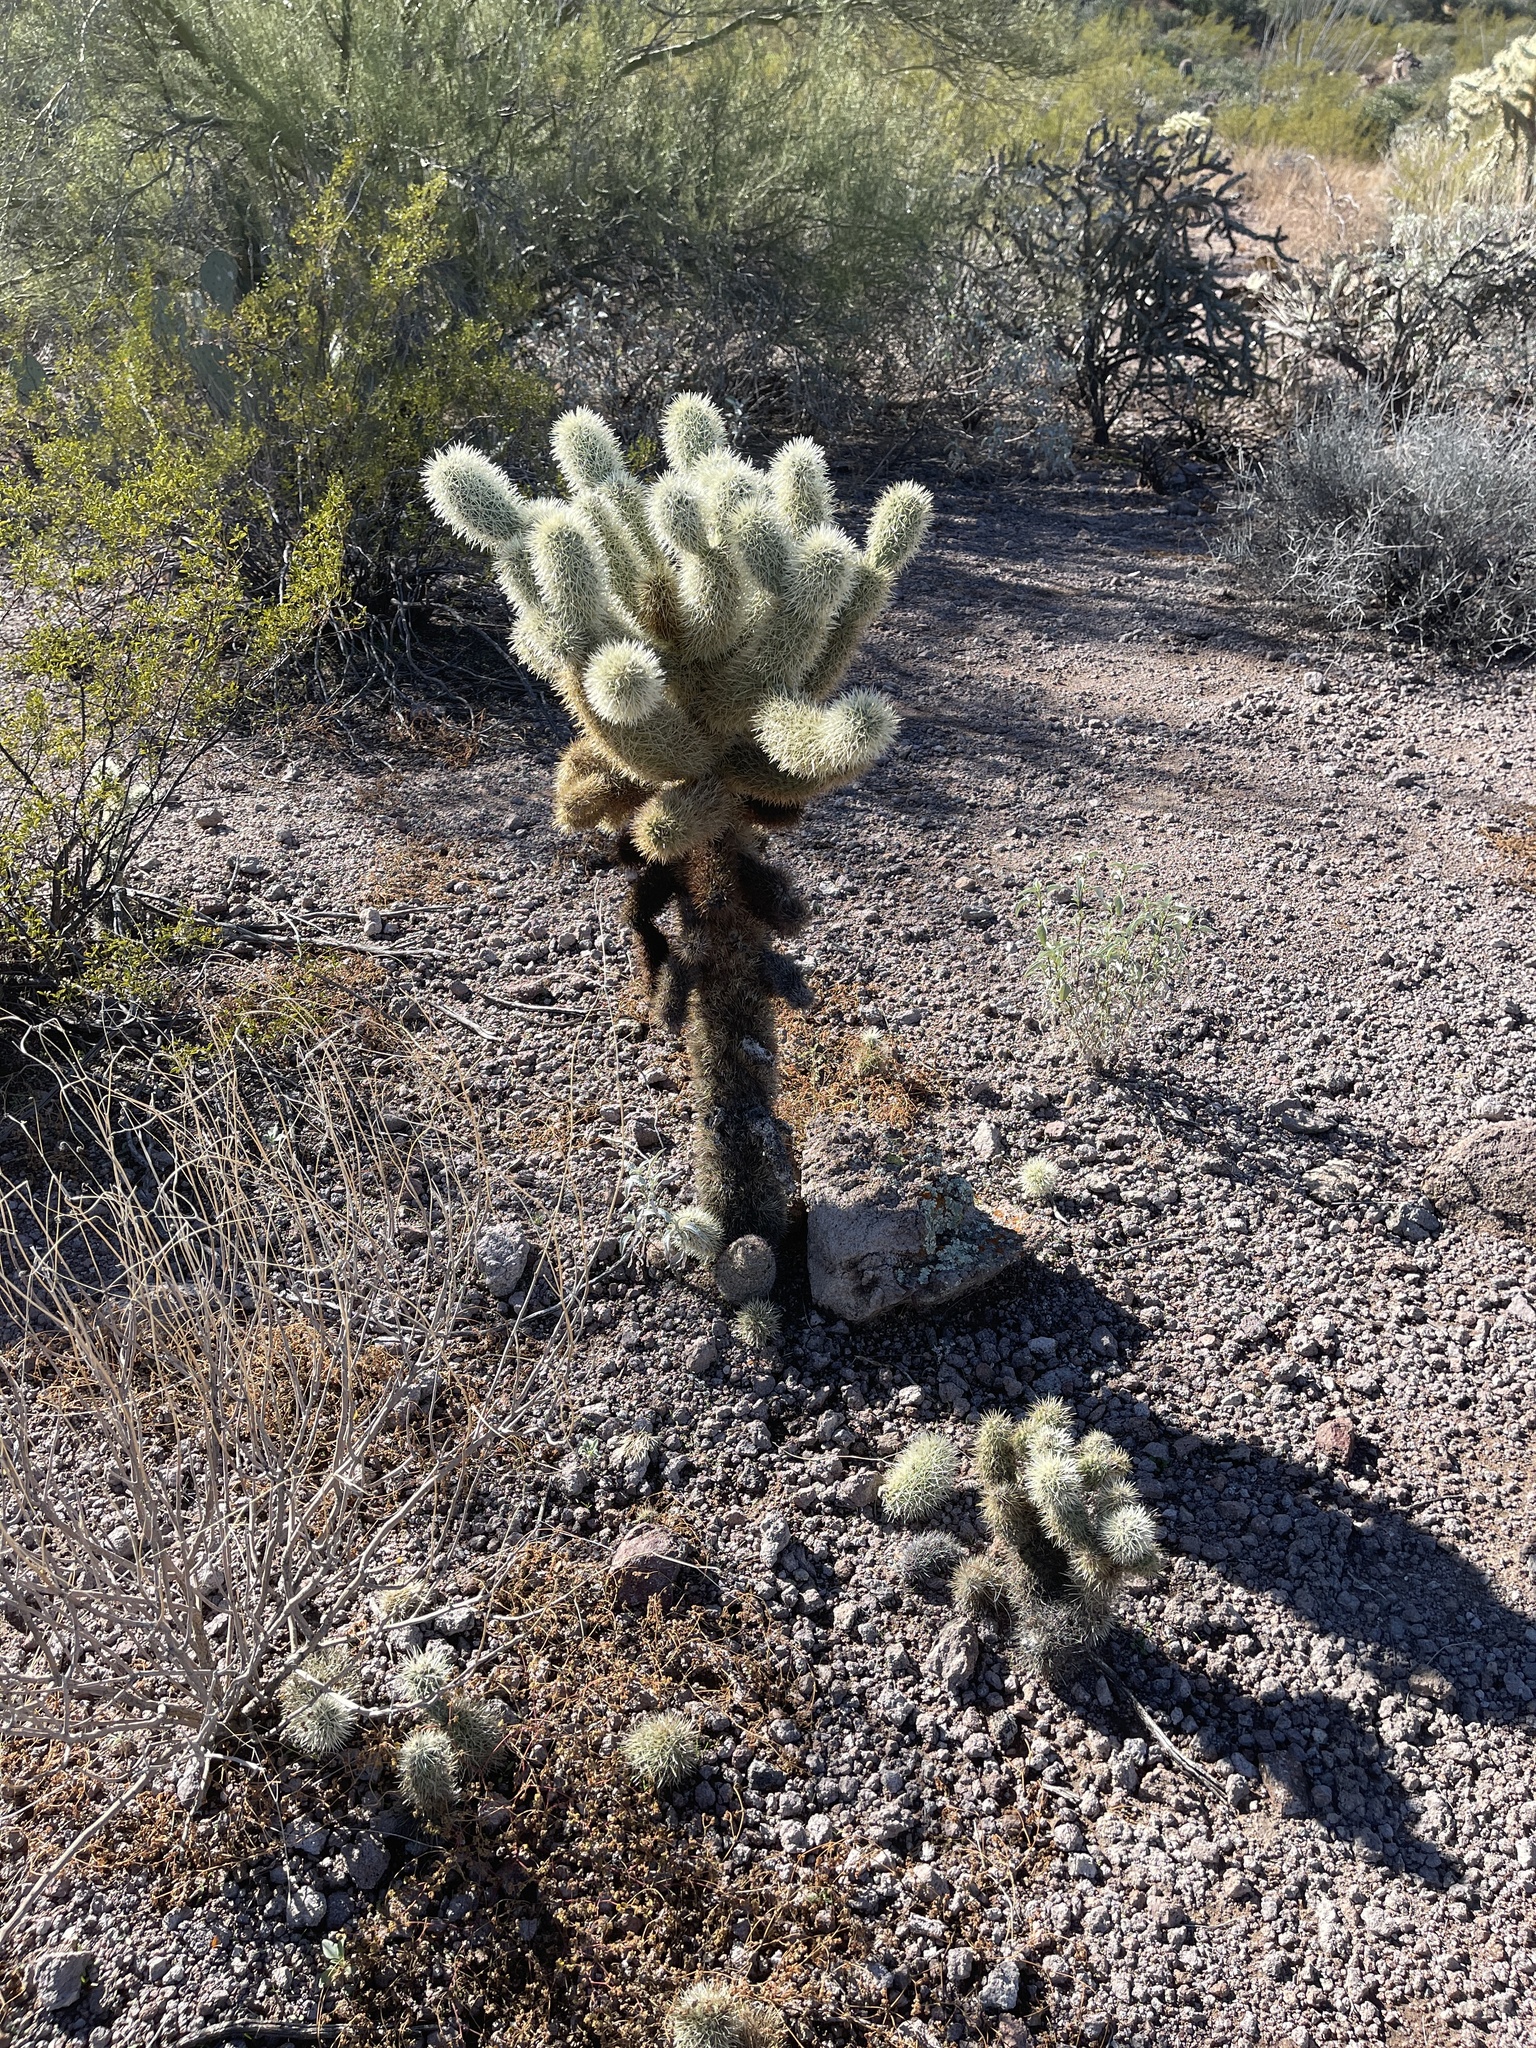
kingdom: Plantae
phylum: Tracheophyta
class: Magnoliopsida
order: Caryophyllales
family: Cactaceae
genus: Cylindropuntia
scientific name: Cylindropuntia fosbergii
